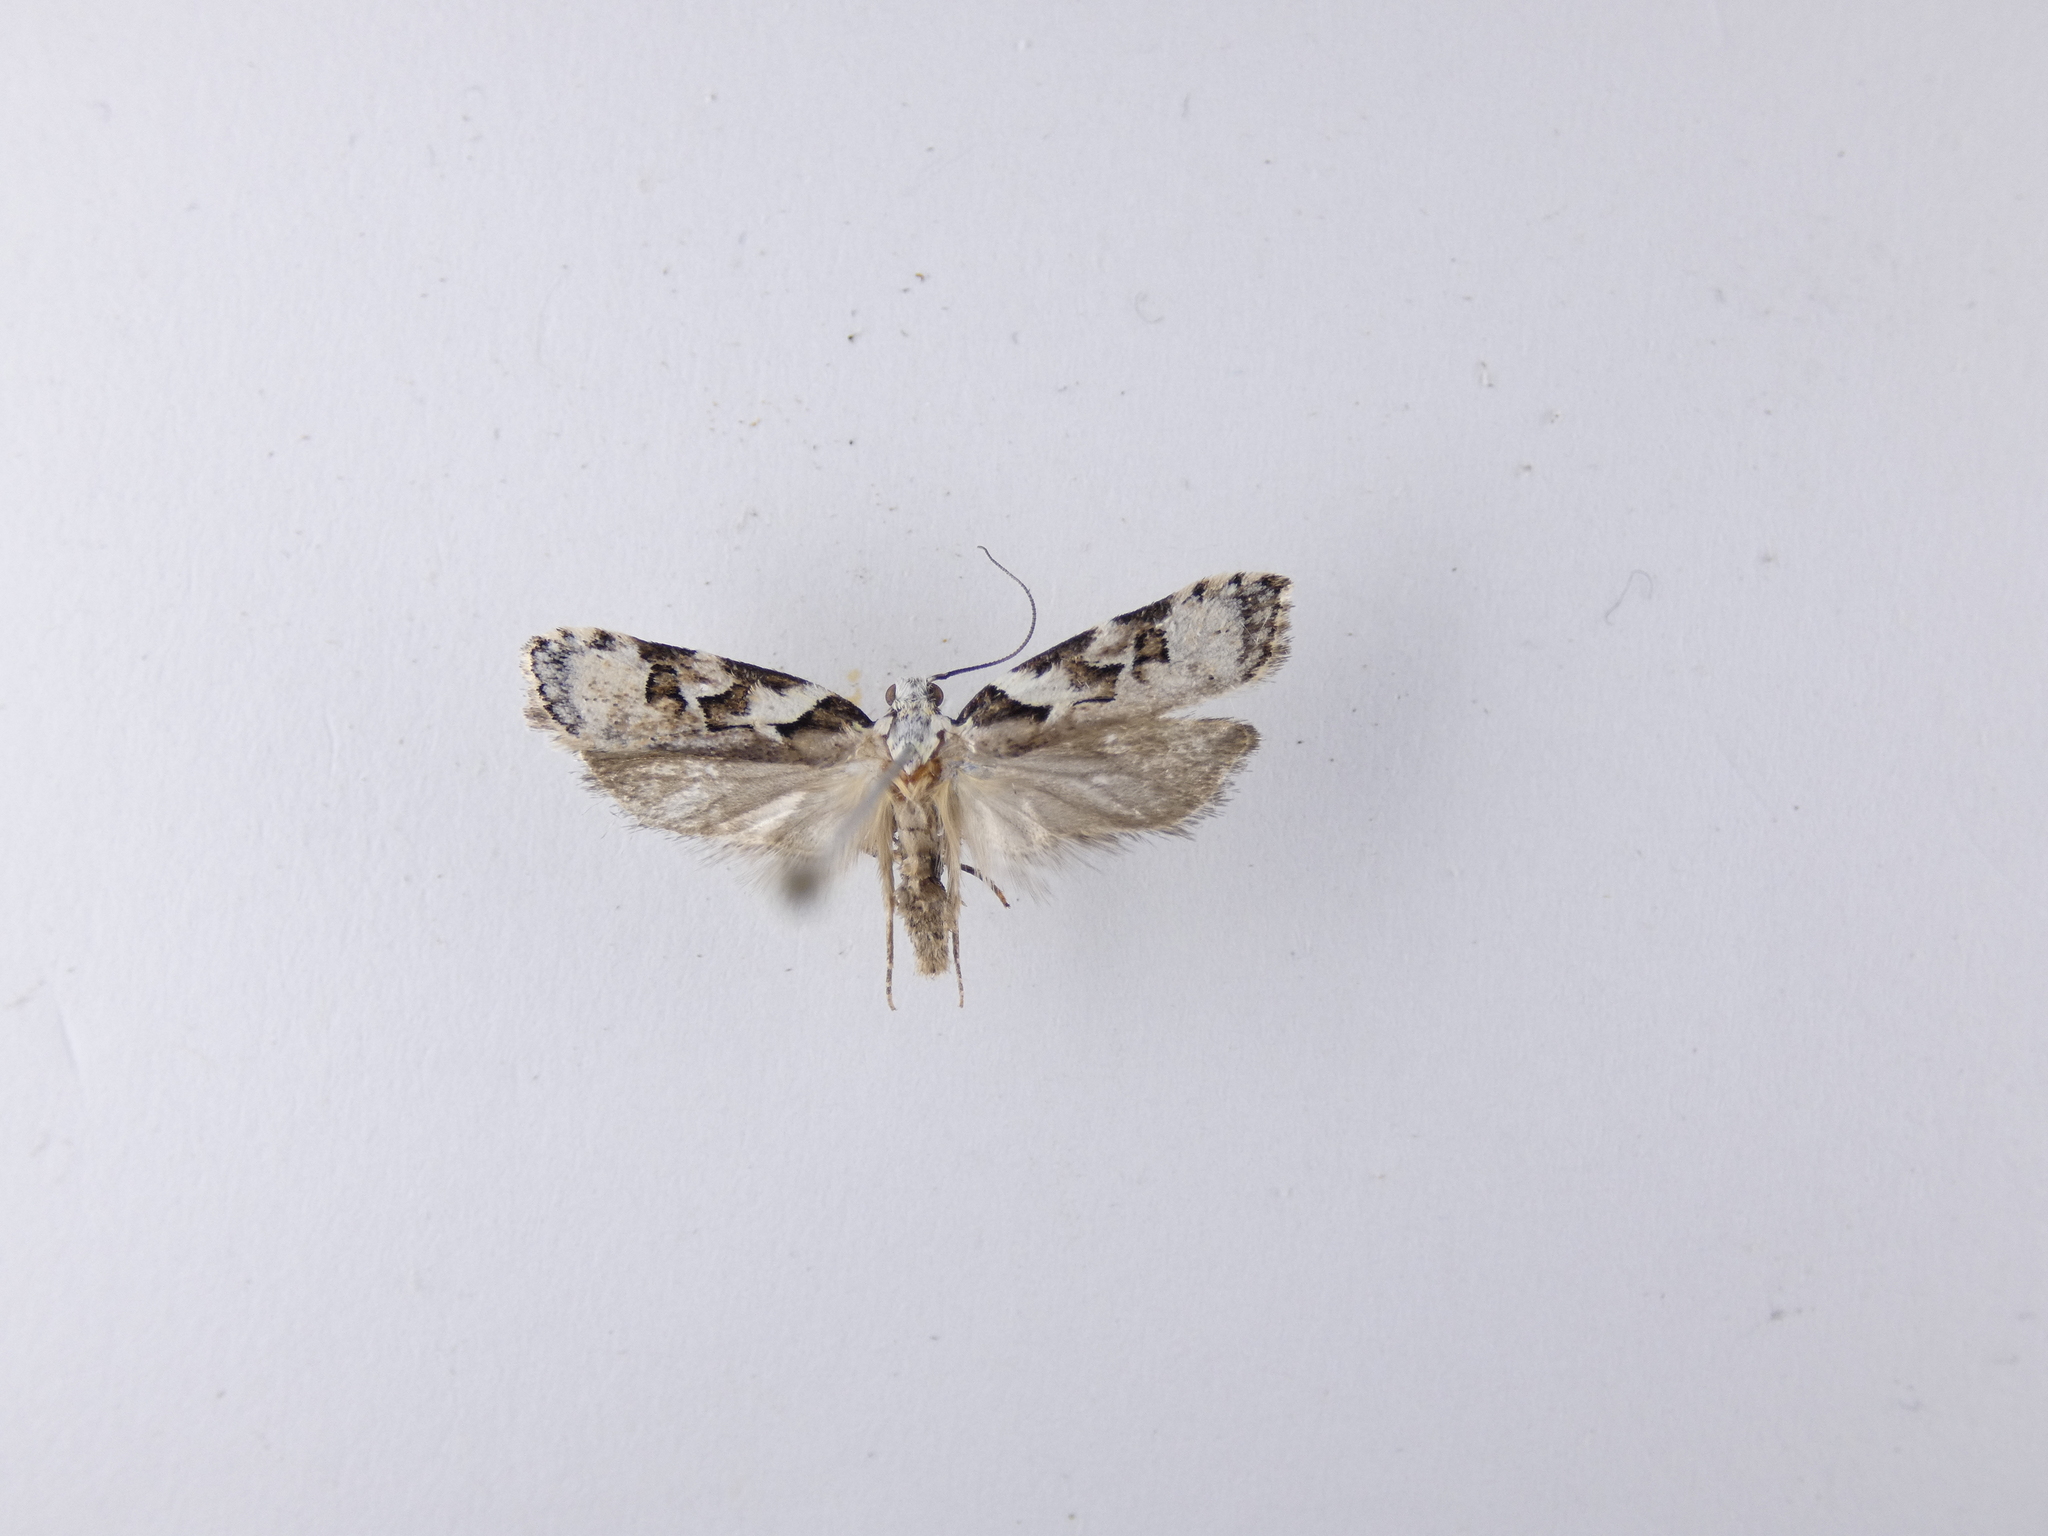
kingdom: Animalia
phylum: Arthropoda
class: Insecta
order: Lepidoptera
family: Oecophoridae
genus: Izatha
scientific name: Izatha epiphanes
